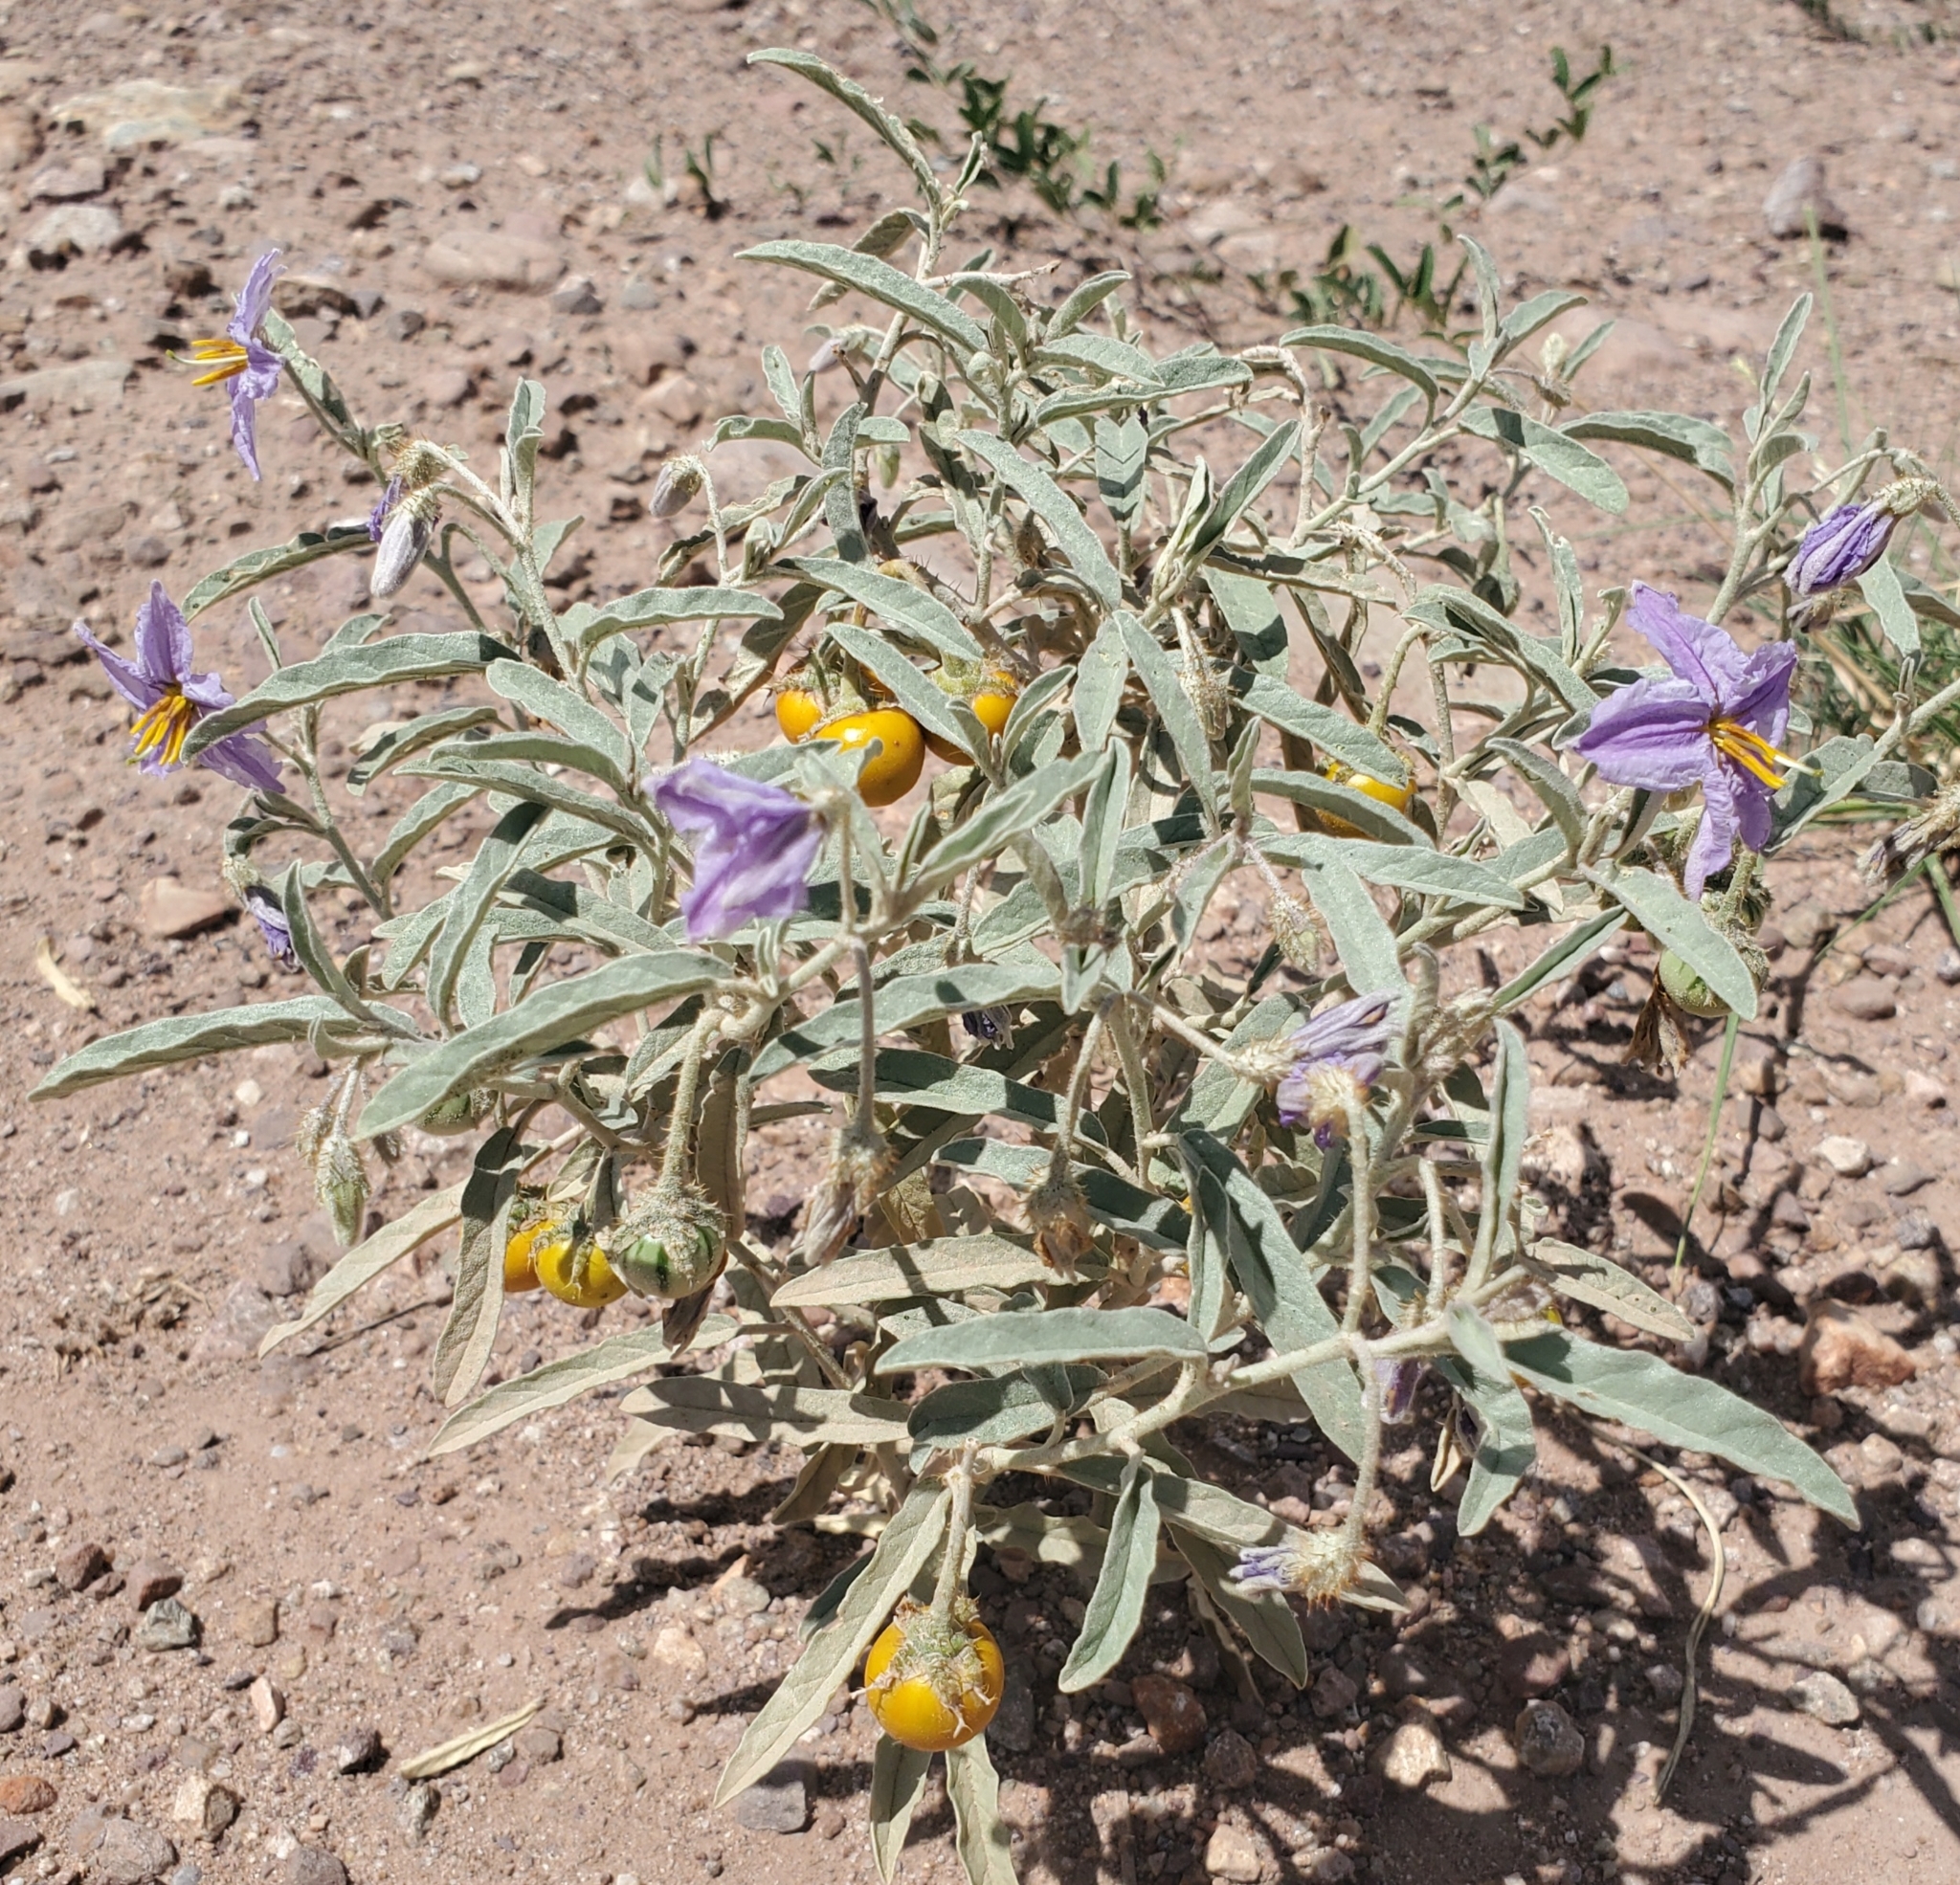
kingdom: Plantae
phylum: Tracheophyta
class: Magnoliopsida
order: Solanales
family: Solanaceae
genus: Solanum
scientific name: Solanum elaeagnifolium
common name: Silverleaf nightshade
